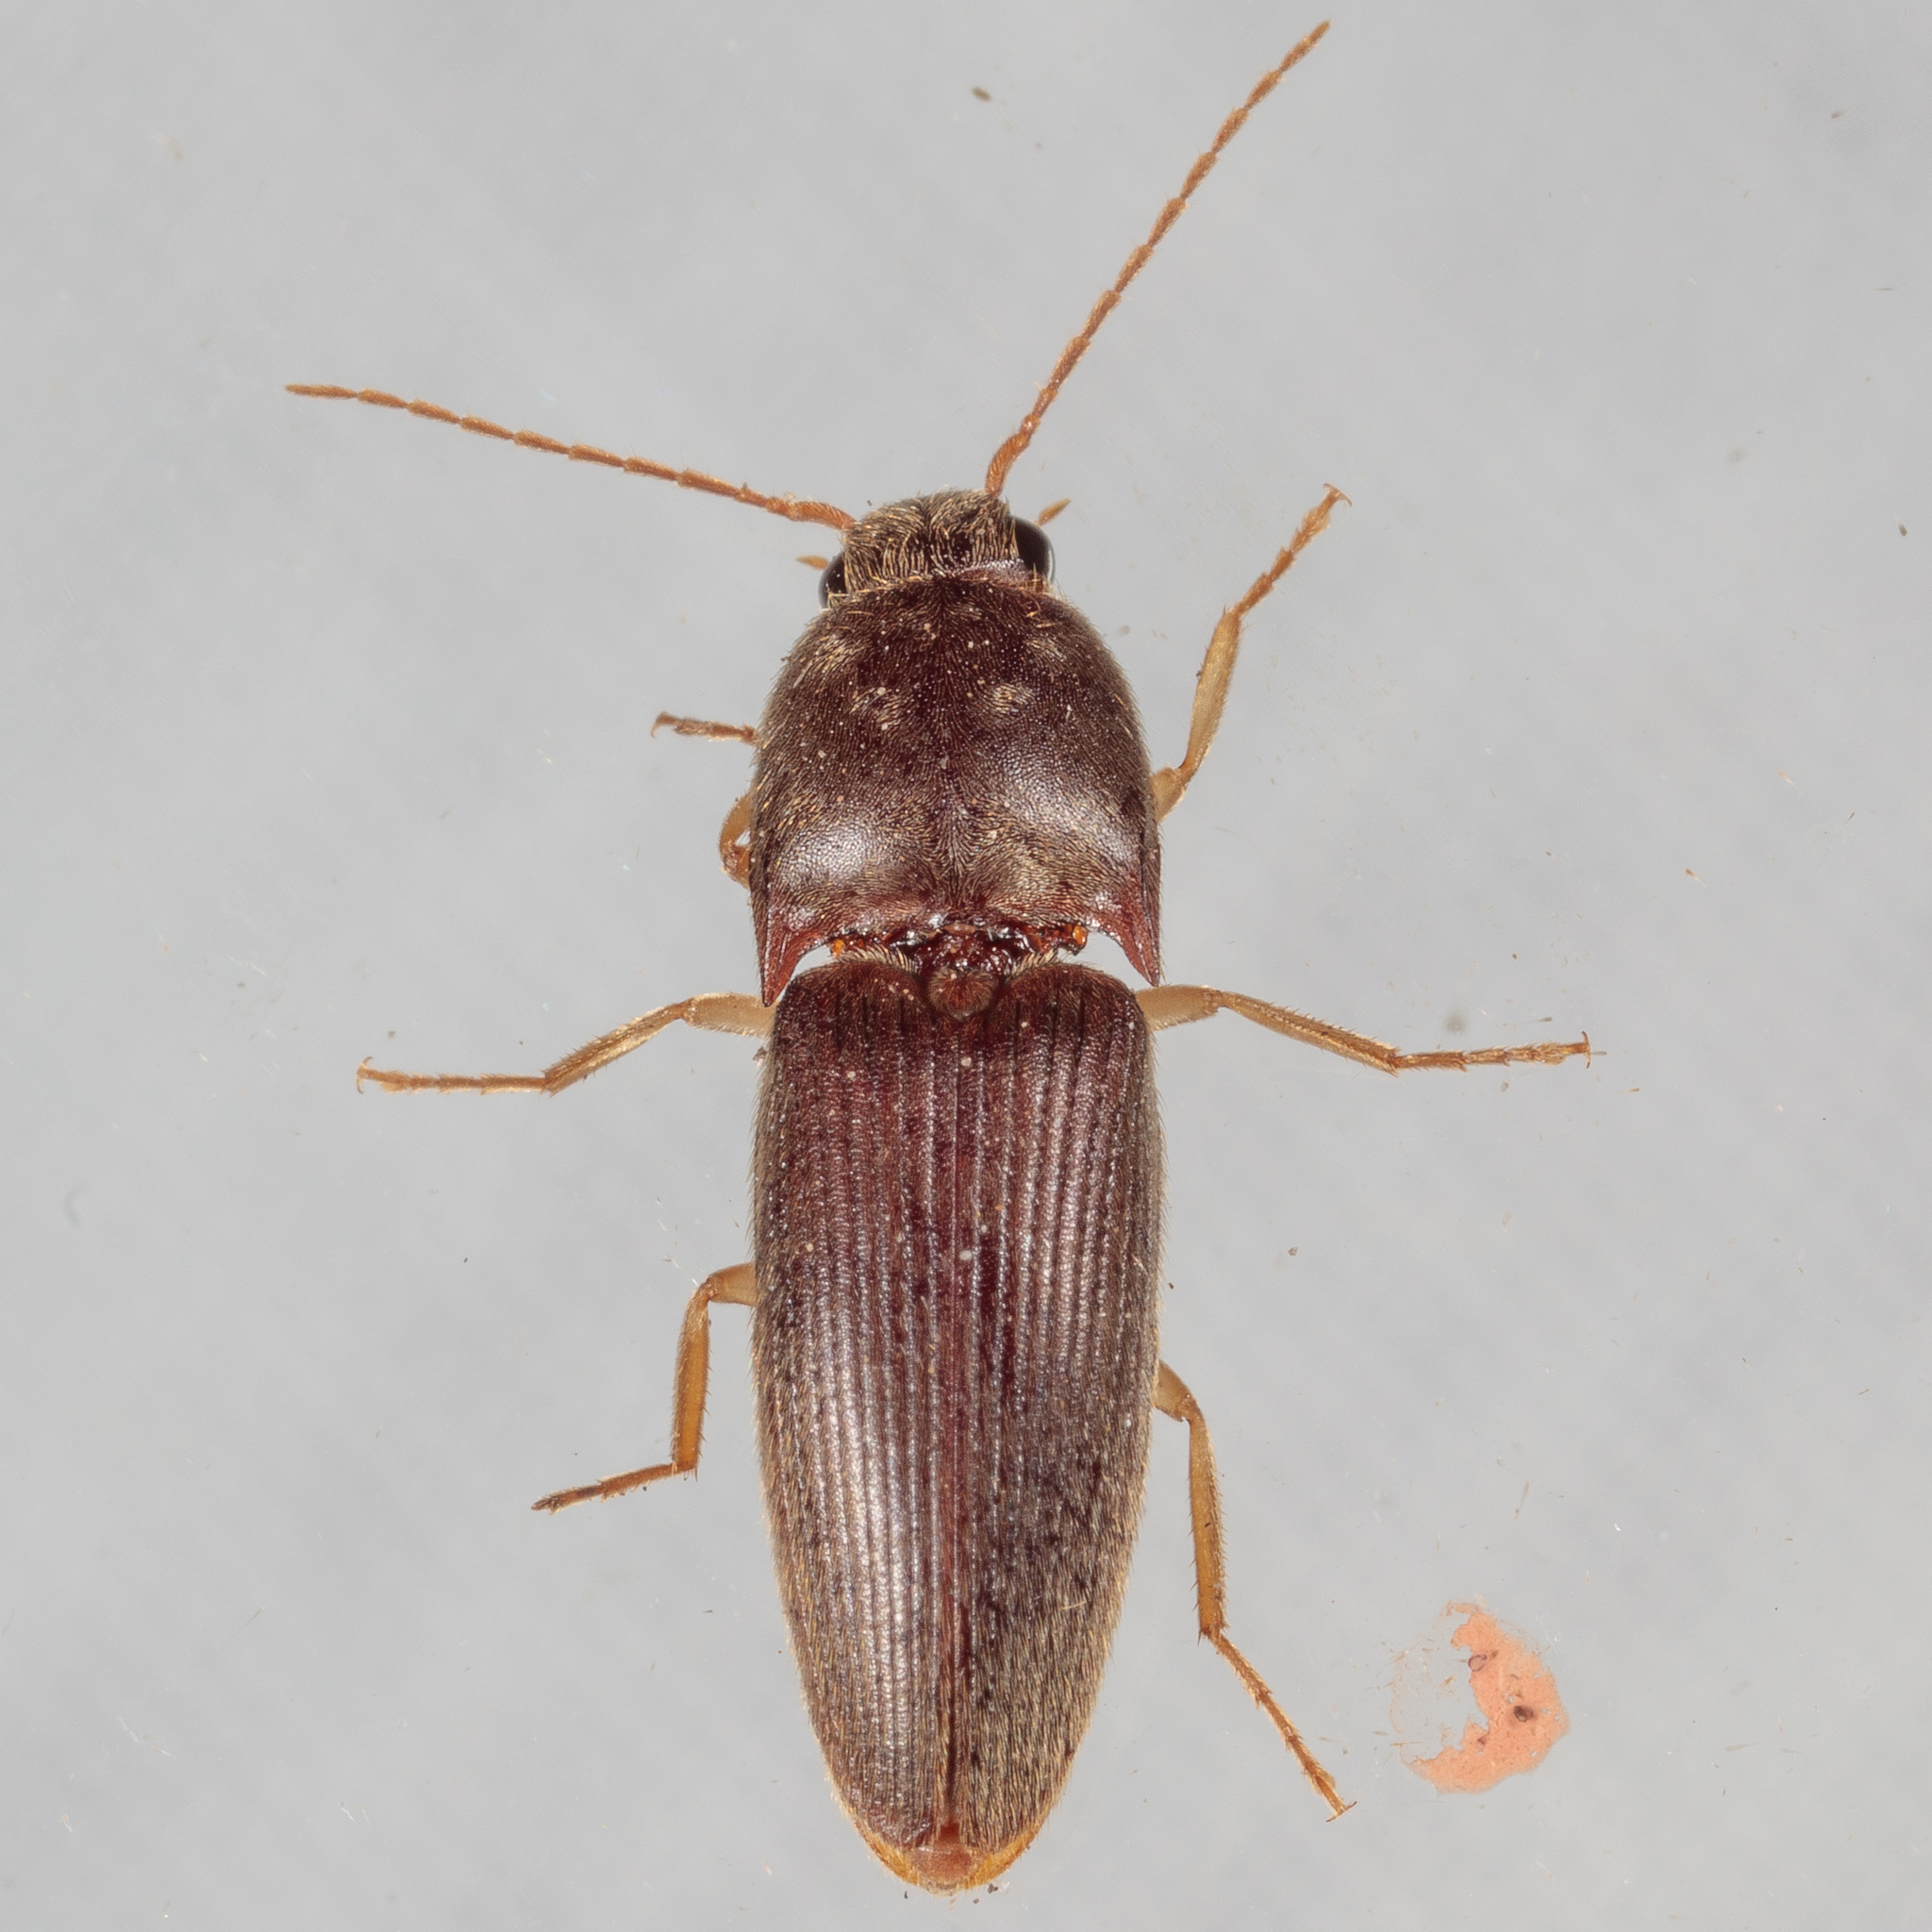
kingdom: Animalia
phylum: Arthropoda
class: Insecta
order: Coleoptera
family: Elateridae
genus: Conoderus
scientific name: Conoderus exsul
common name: Click beetle
